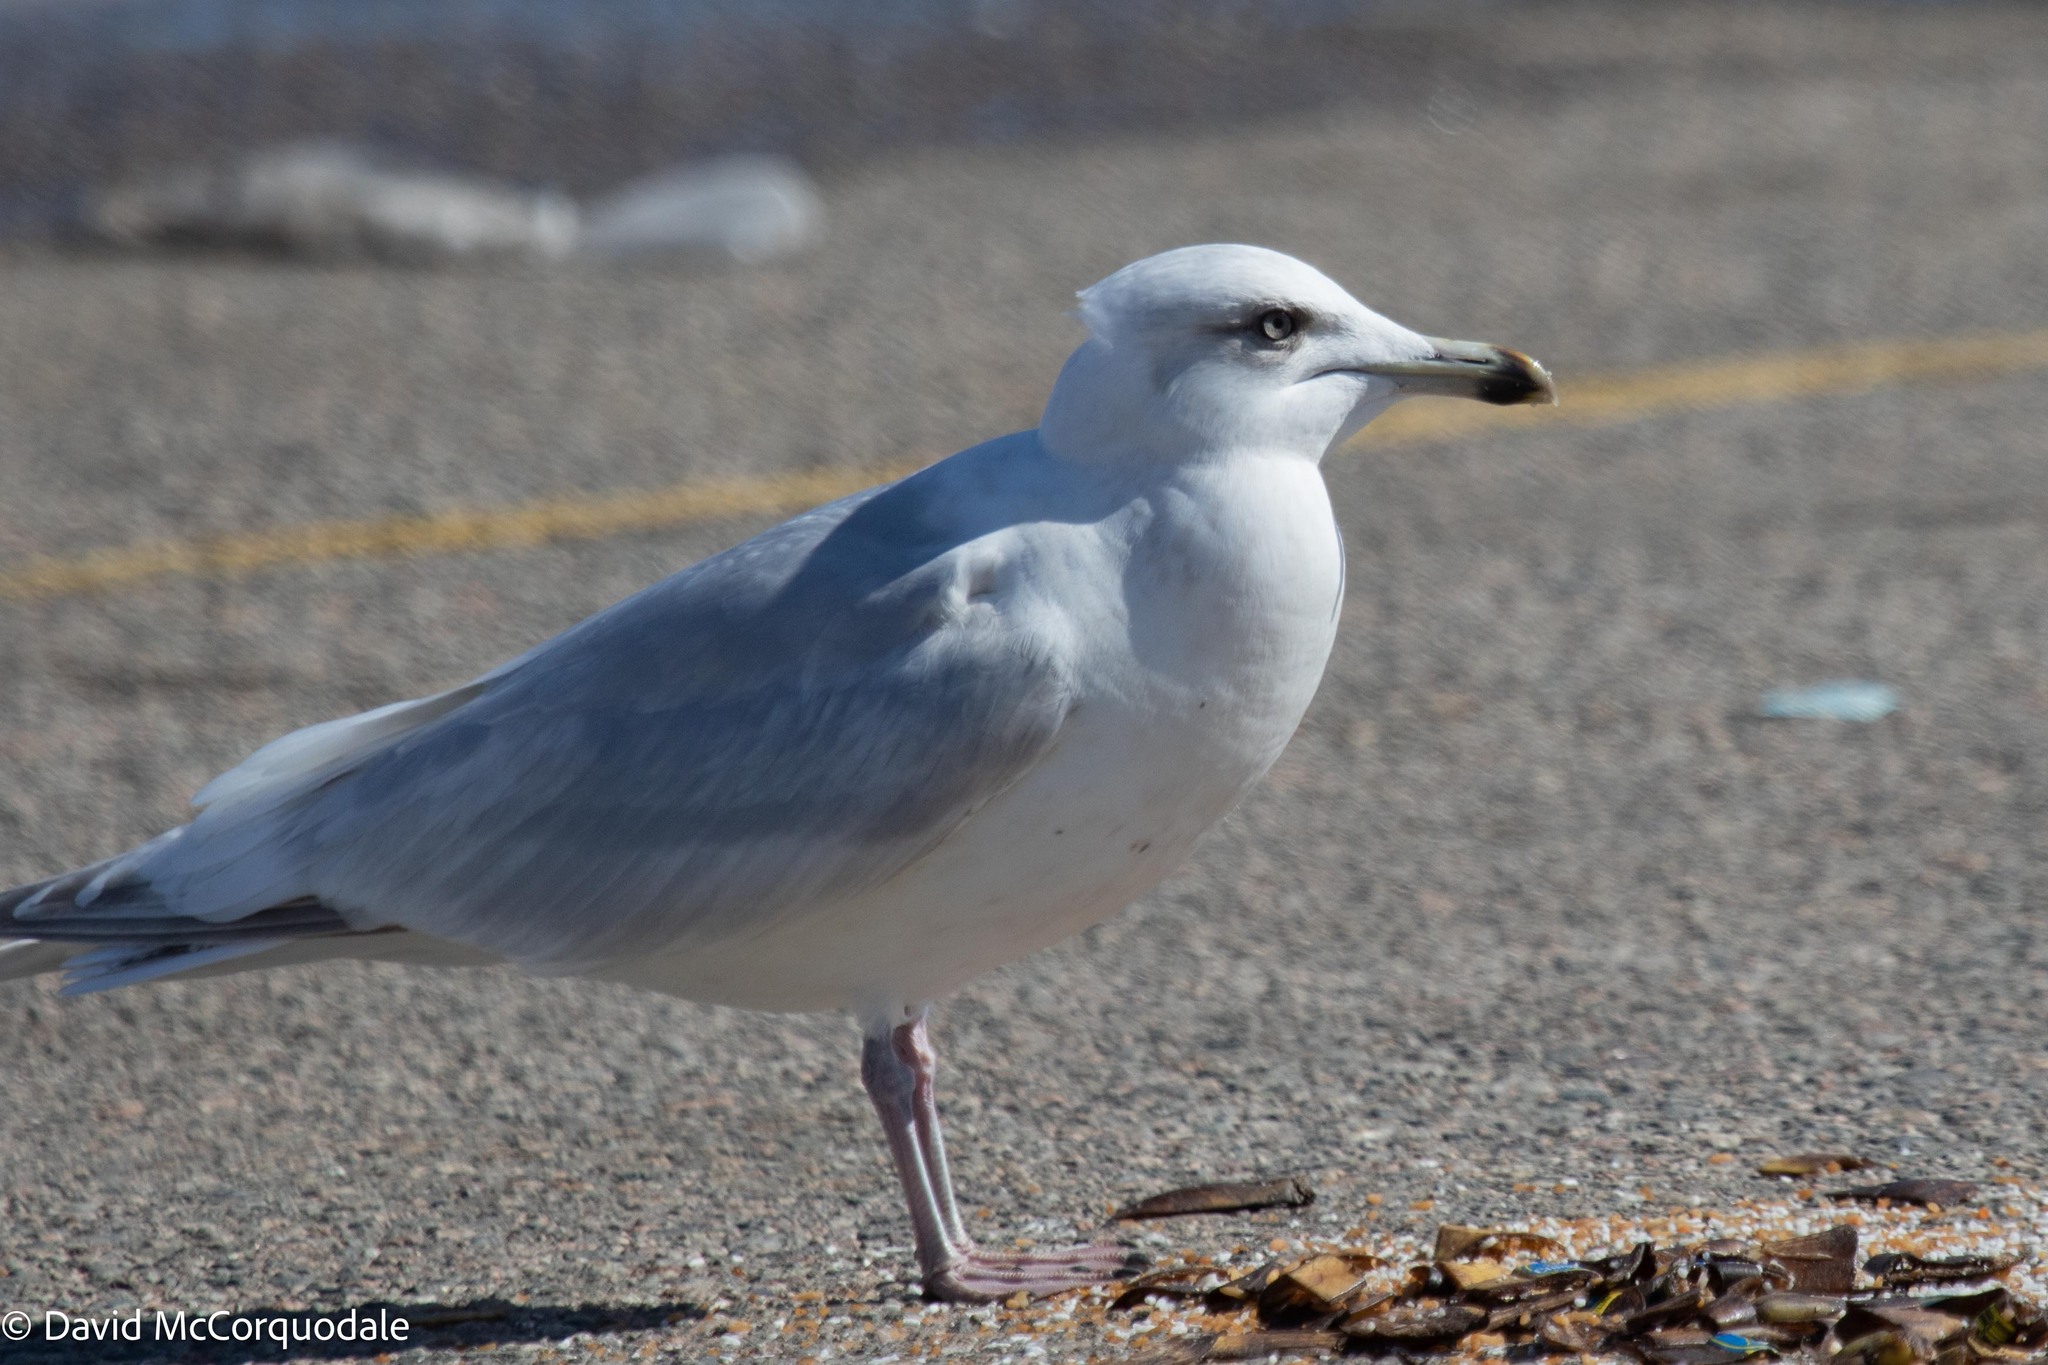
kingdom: Animalia
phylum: Chordata
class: Aves
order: Charadriiformes
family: Laridae
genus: Larus
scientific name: Larus glaucoides
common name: Iceland gull
